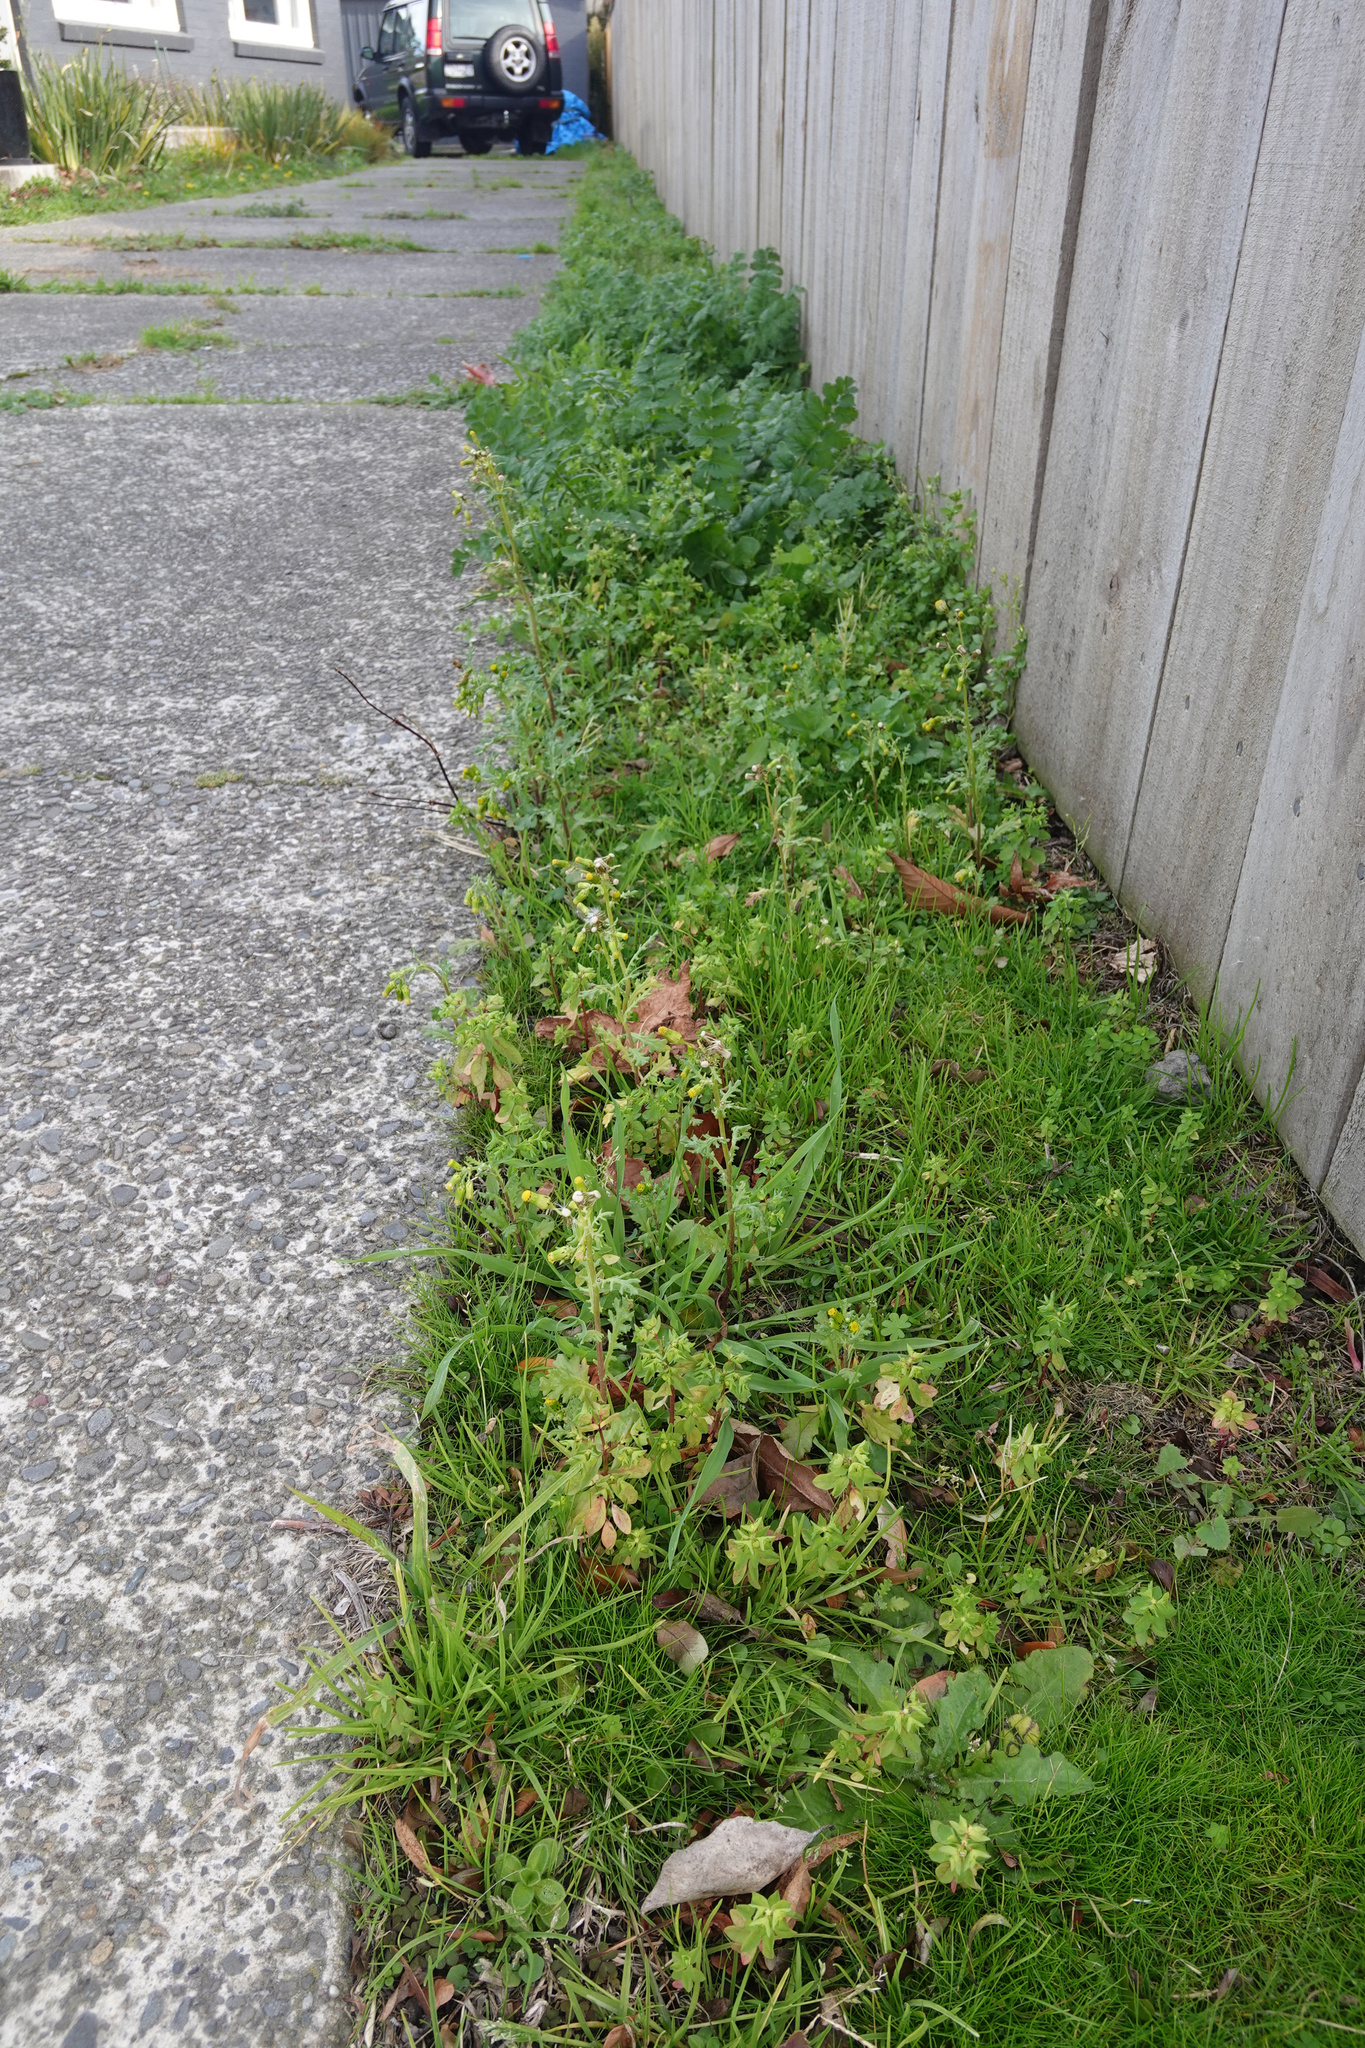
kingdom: Plantae
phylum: Tracheophyta
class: Magnoliopsida
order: Asterales
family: Asteraceae
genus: Senecio
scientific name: Senecio vulgaris
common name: Old-man-in-the-spring
